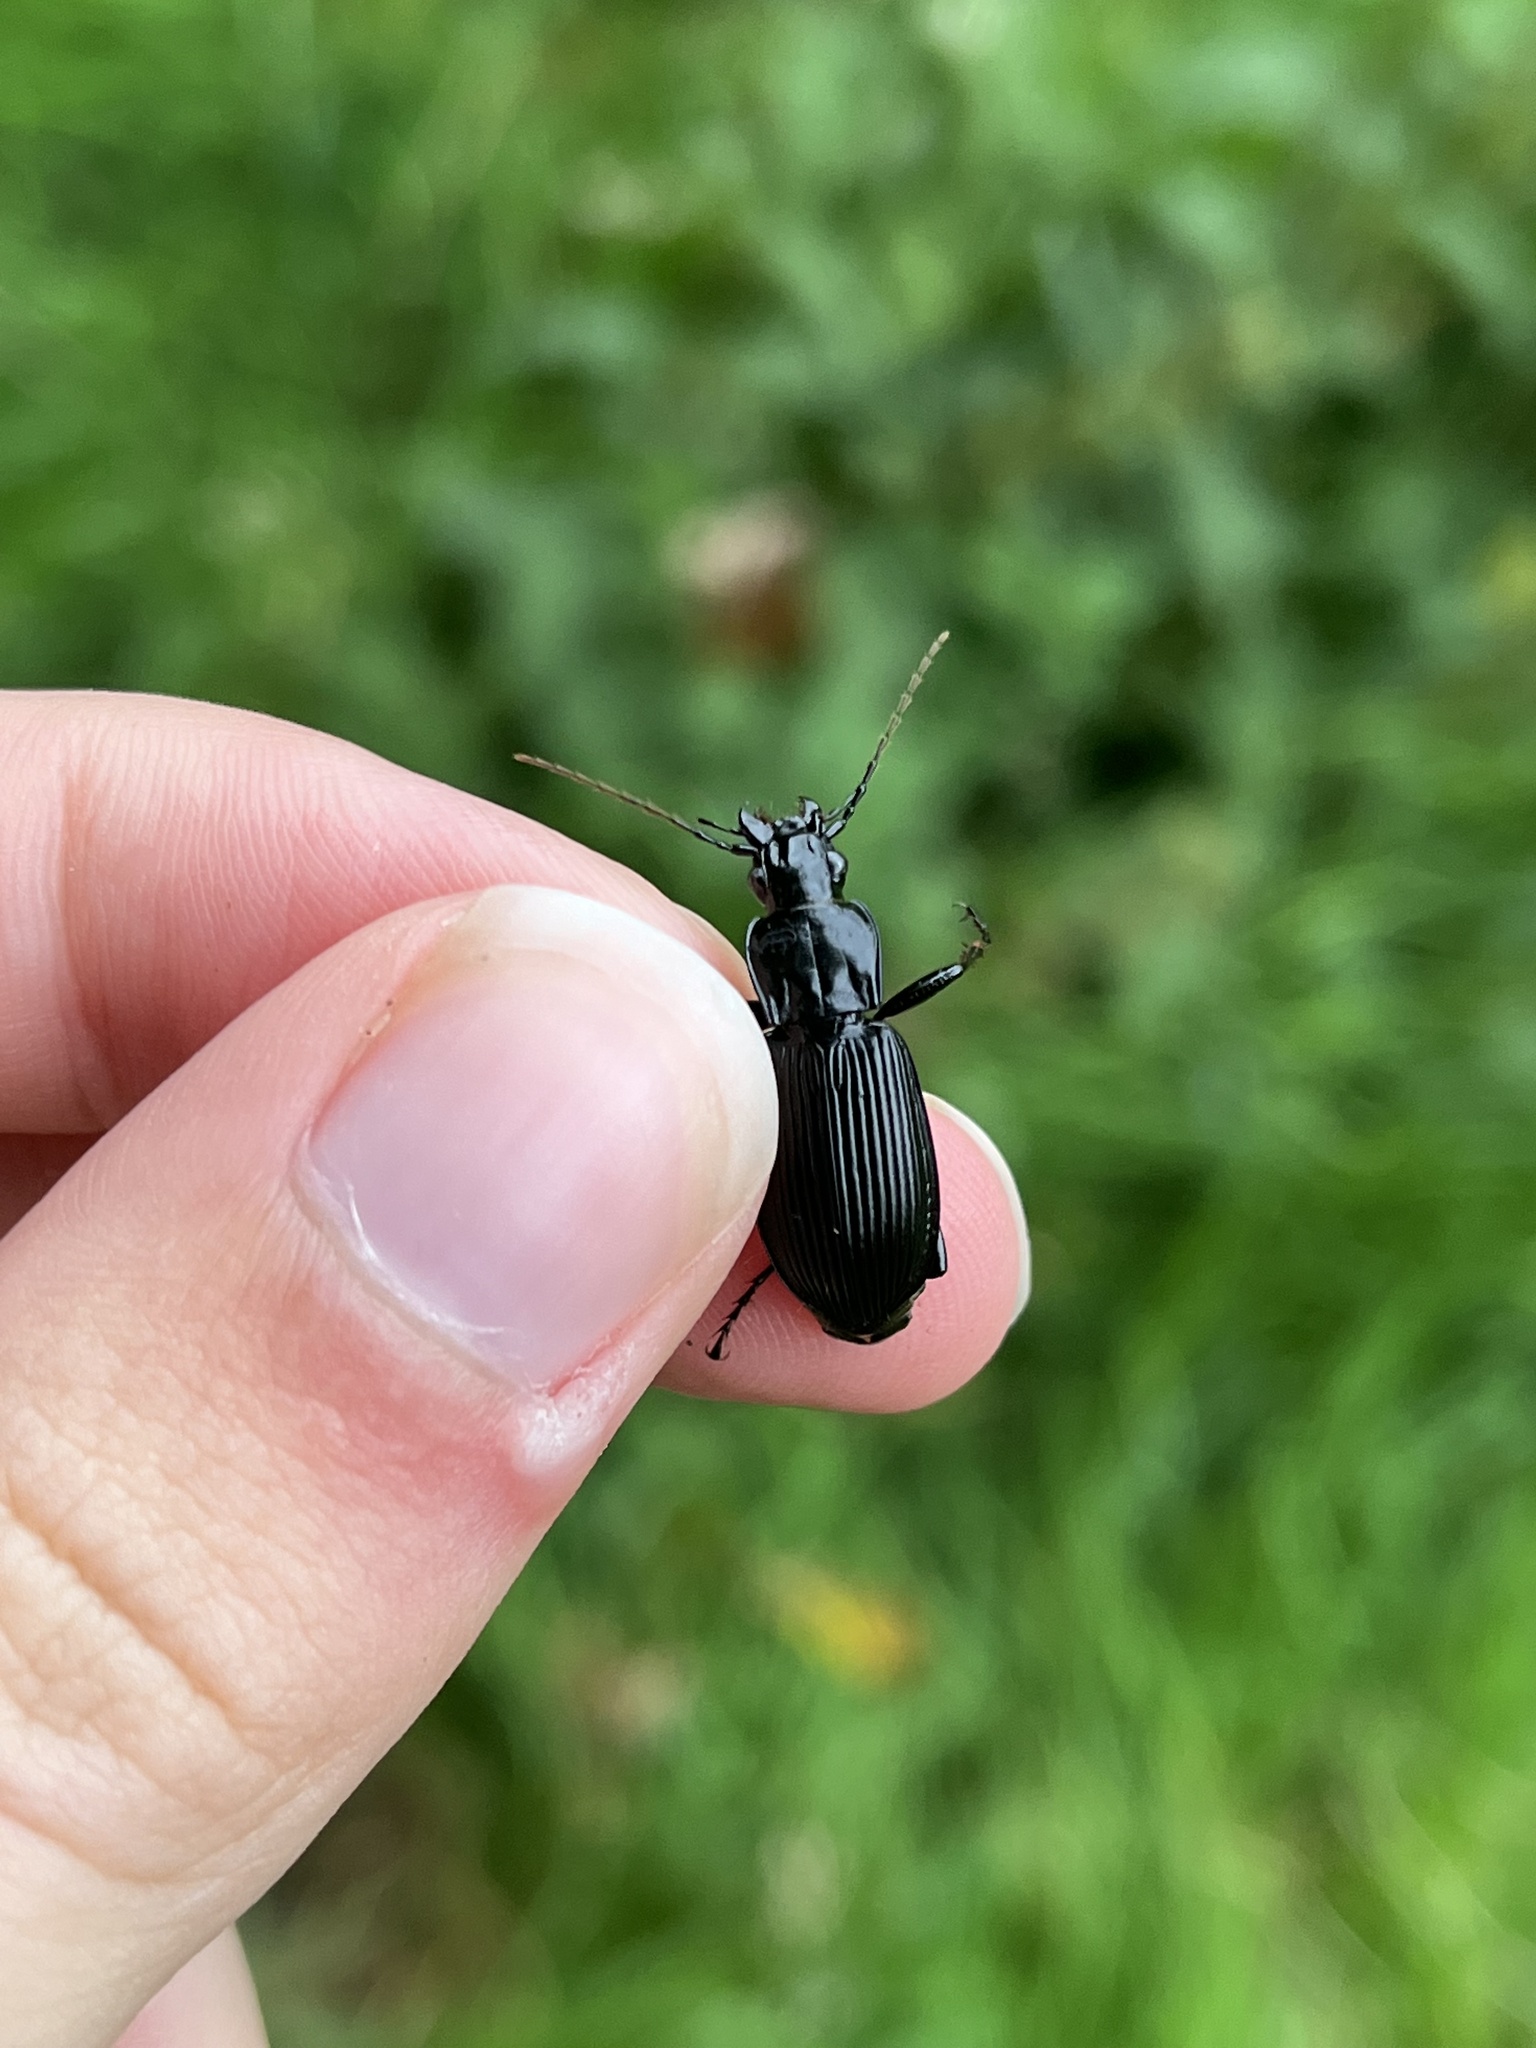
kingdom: Animalia
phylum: Arthropoda
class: Insecta
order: Coleoptera
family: Carabidae
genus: Pterostichus
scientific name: Pterostichus niger
